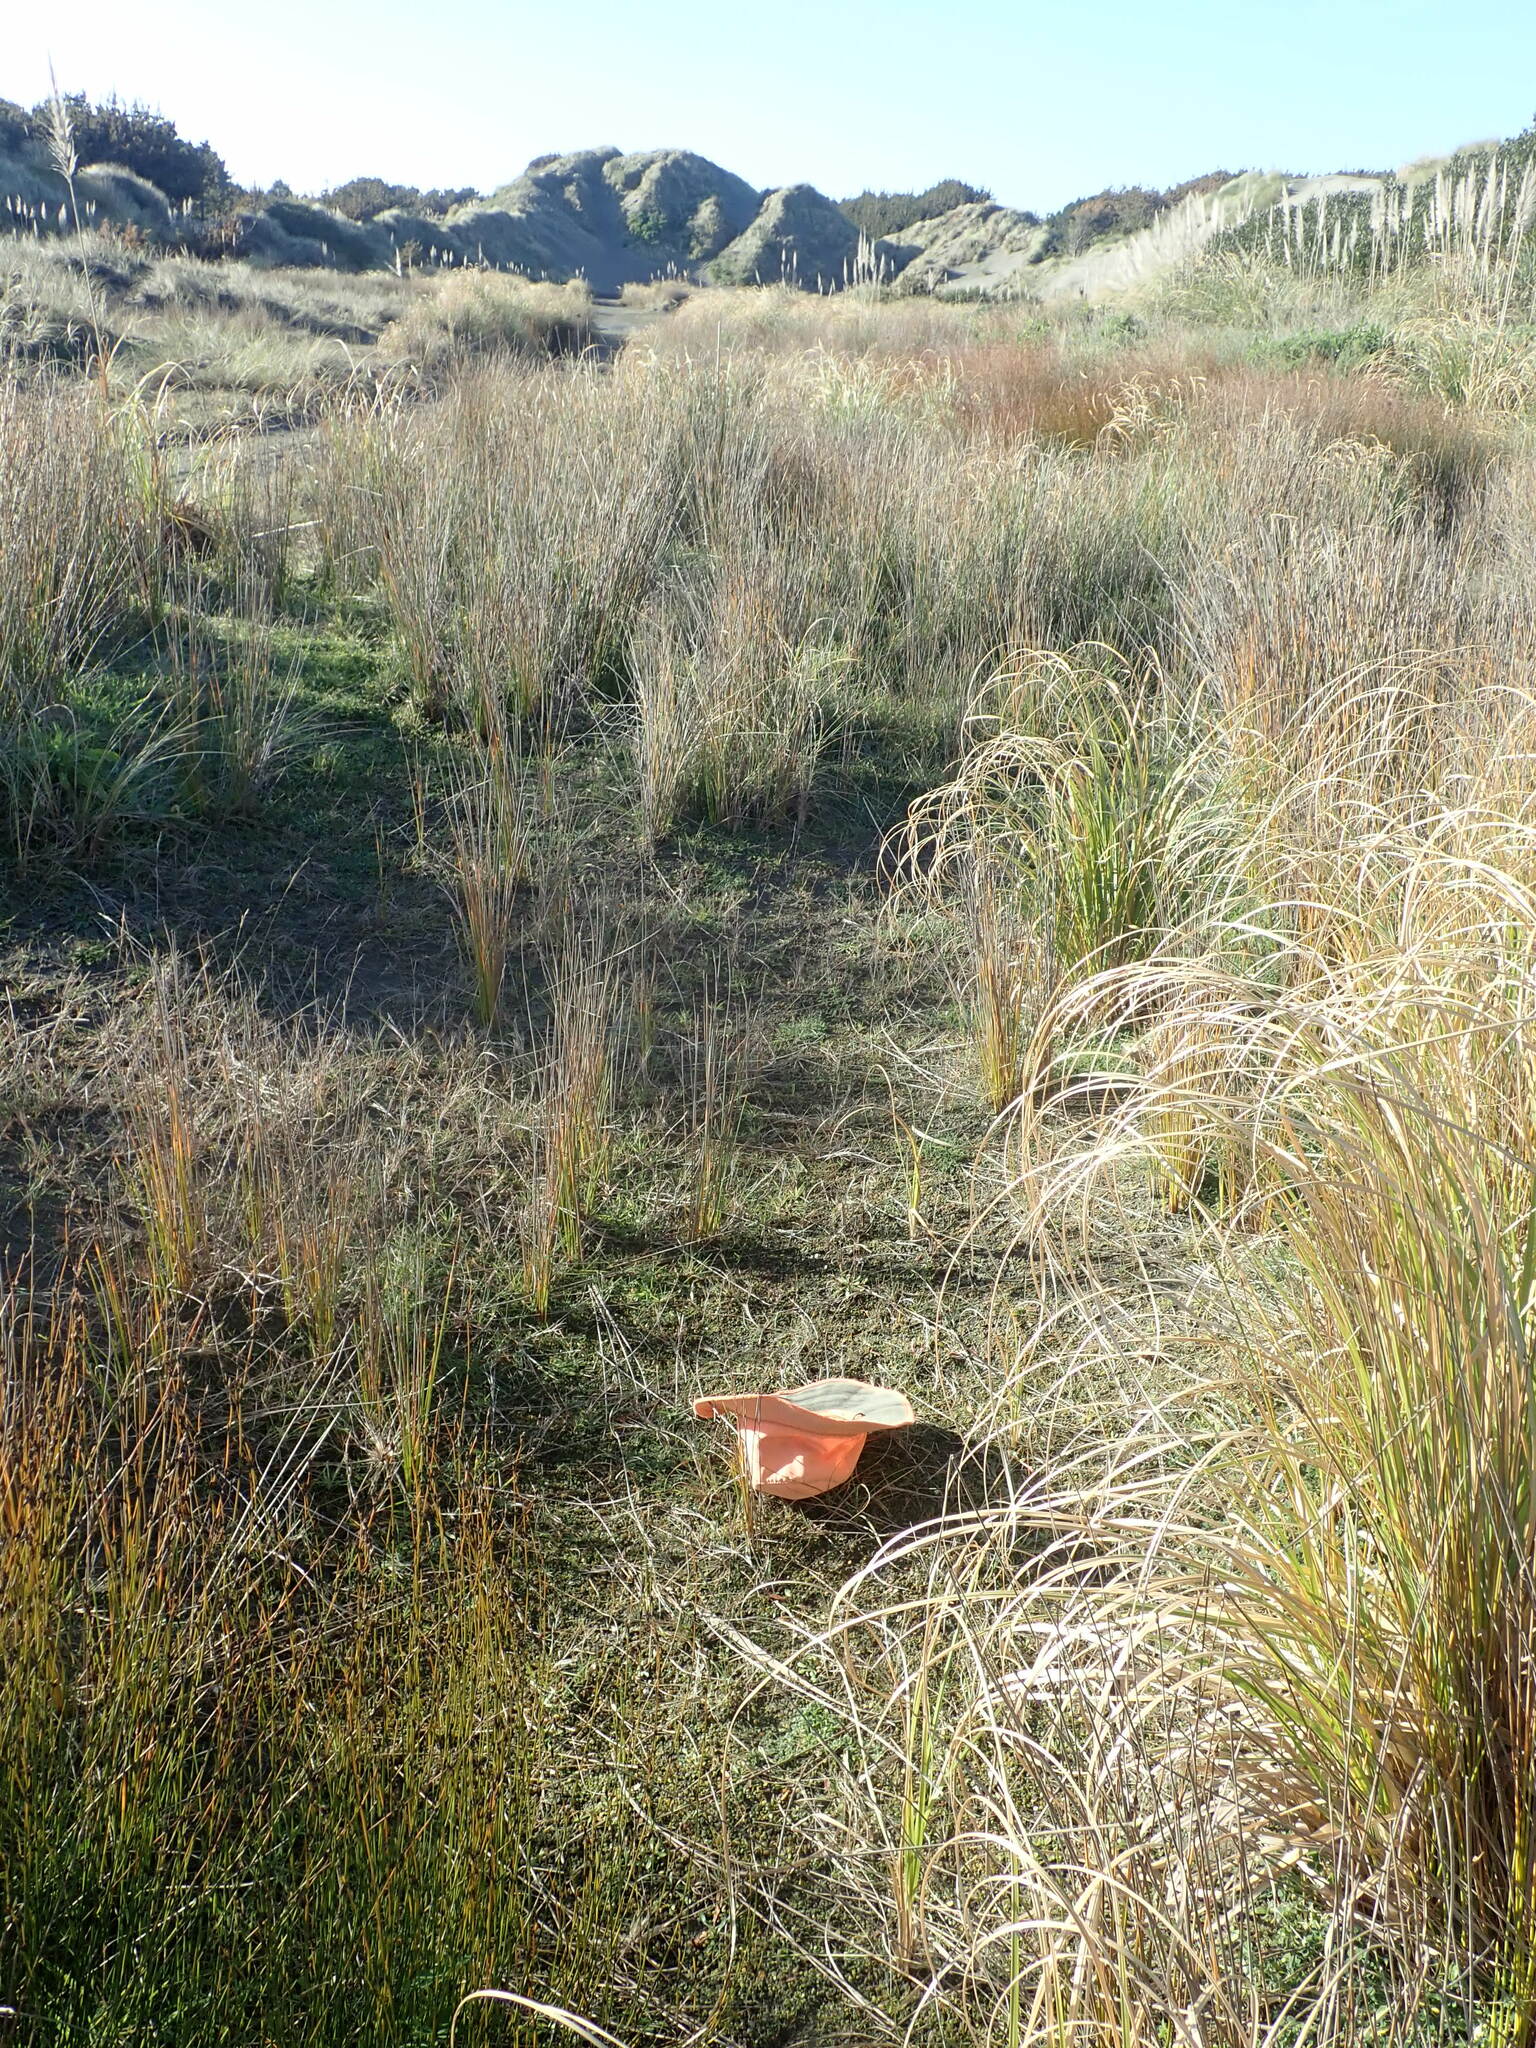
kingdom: Animalia
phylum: Mollusca
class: Gastropoda
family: Physidae
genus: Physella
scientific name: Physella acuta
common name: European physa
